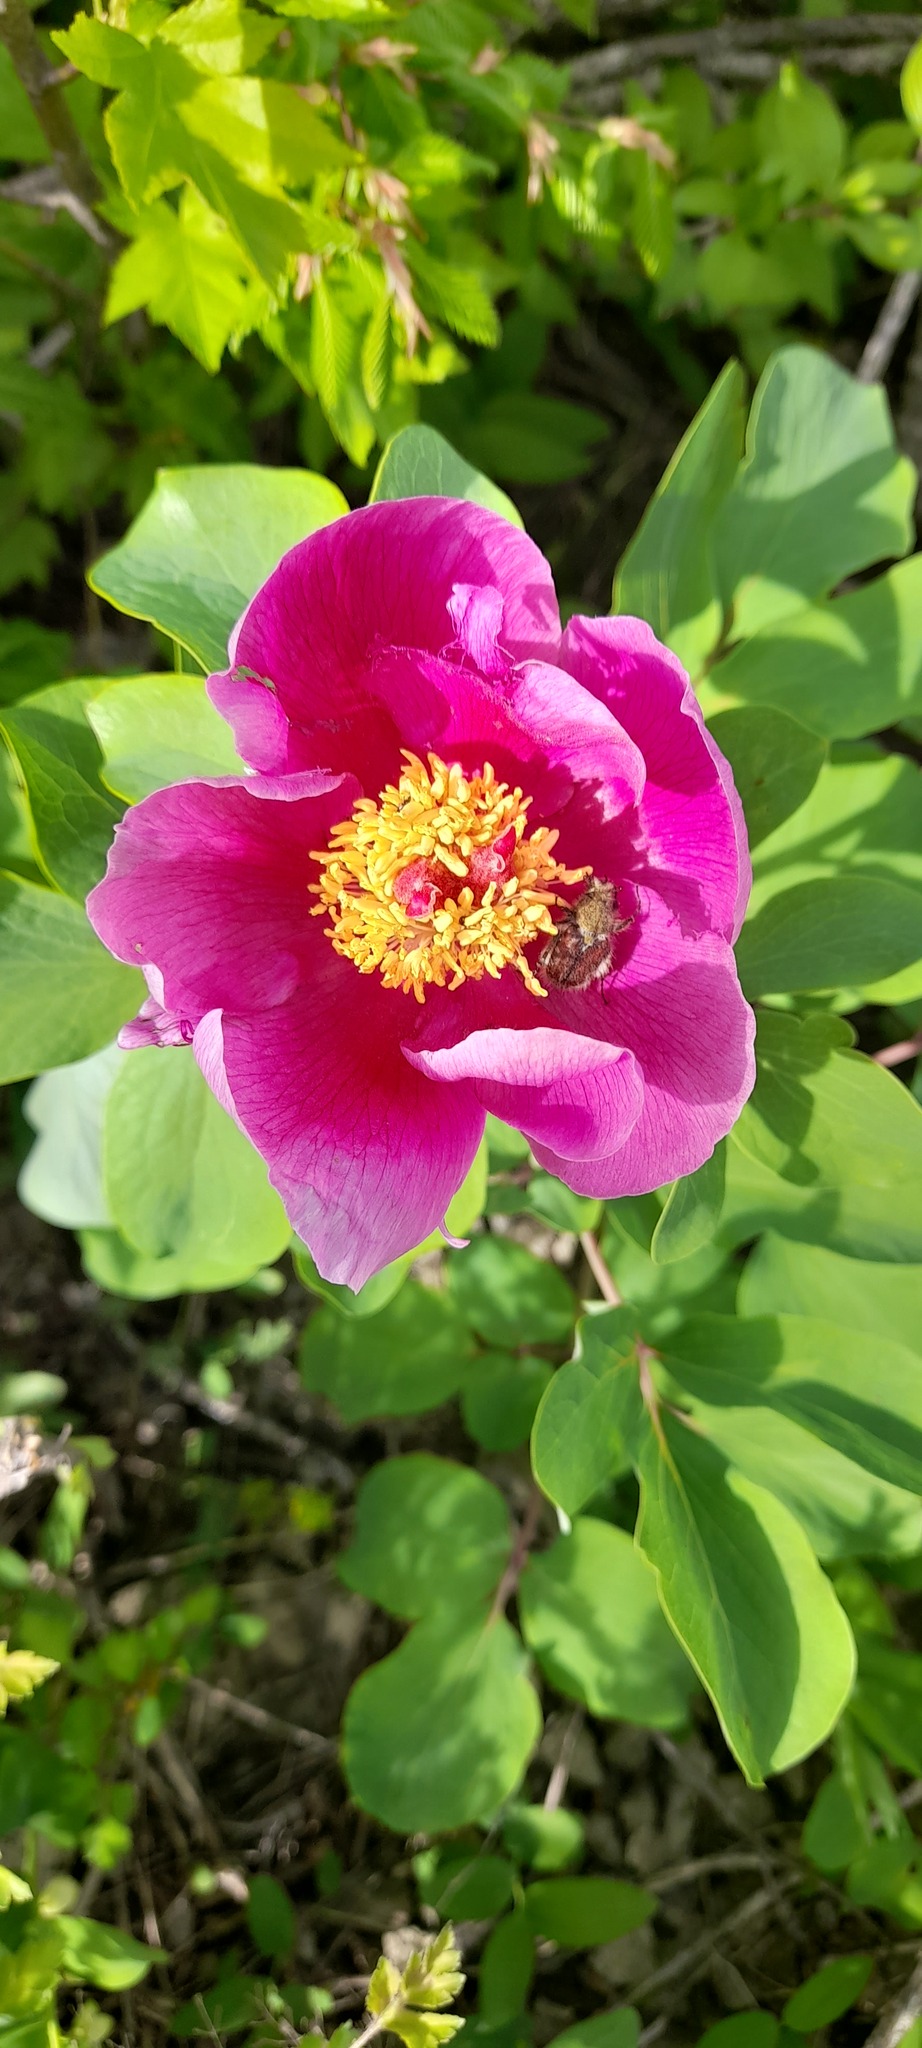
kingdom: Plantae
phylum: Tracheophyta
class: Magnoliopsida
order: Saxifragales
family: Paeoniaceae
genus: Paeonia
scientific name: Paeonia daurica
